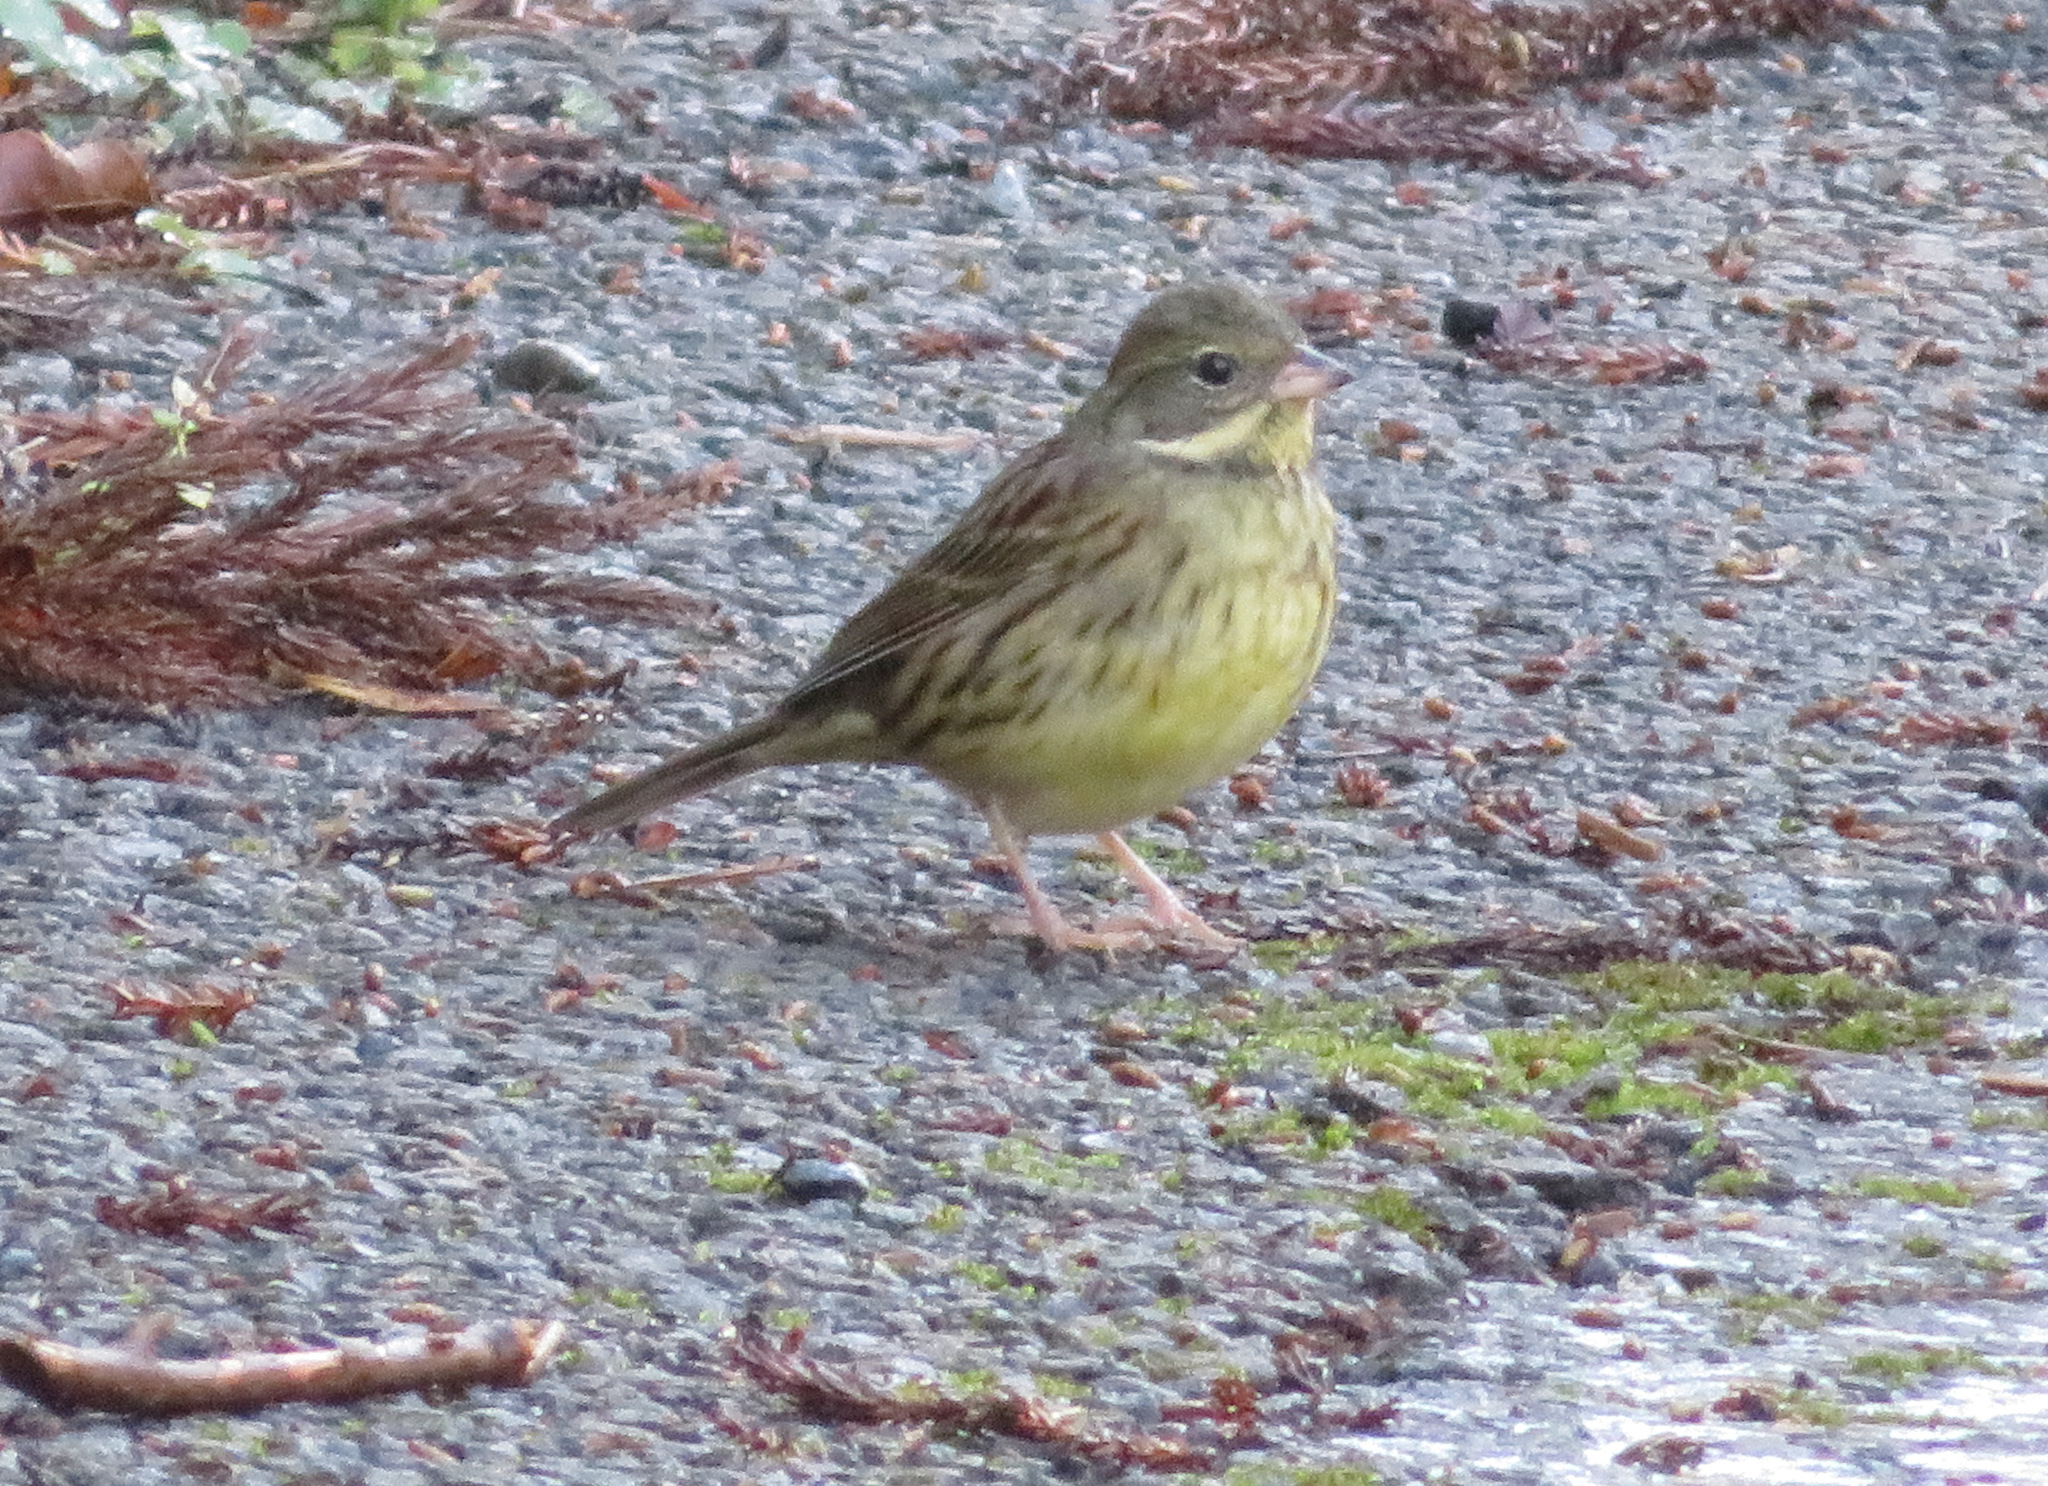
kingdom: Animalia
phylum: Chordata
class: Aves
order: Passeriformes
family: Emberizidae
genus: Emberiza
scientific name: Emberiza personata
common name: Masked bunting
